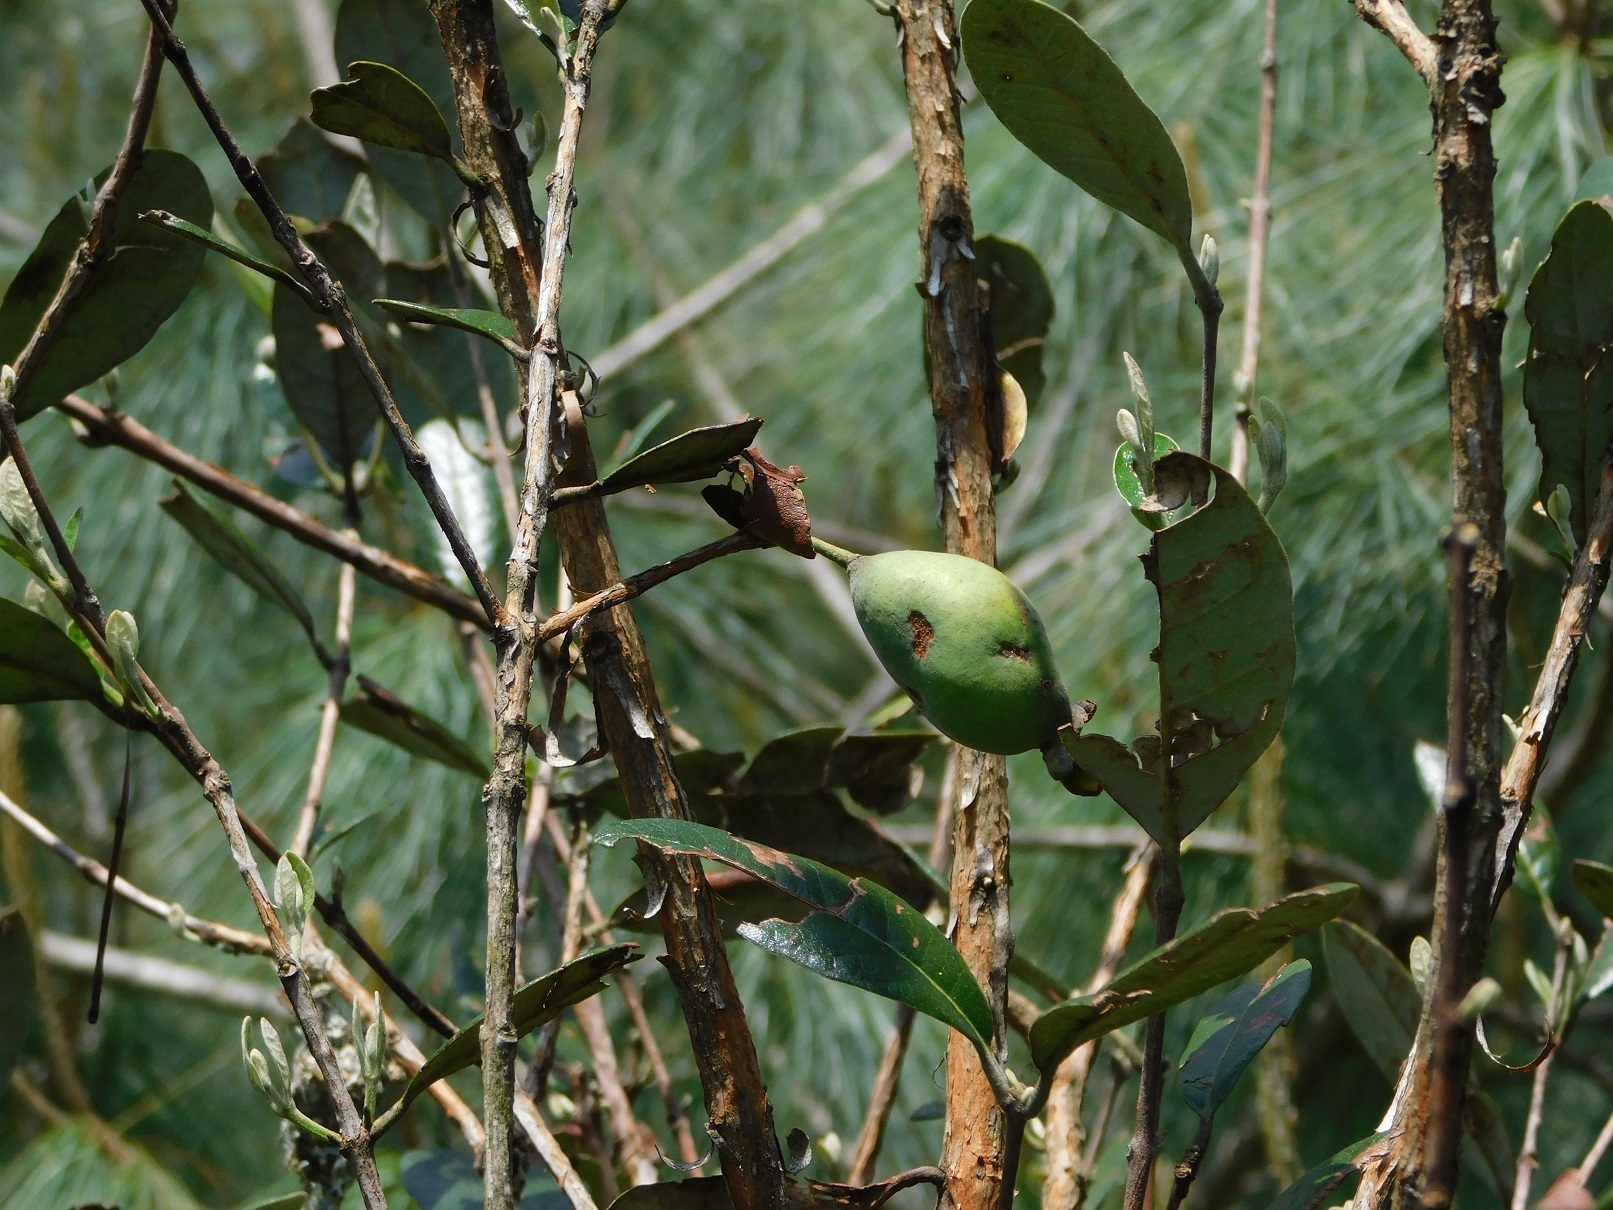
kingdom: Plantae
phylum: Tracheophyta
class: Magnoliopsida
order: Myrtales
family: Myrtaceae
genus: Feijoa
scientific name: Feijoa sellowiana
